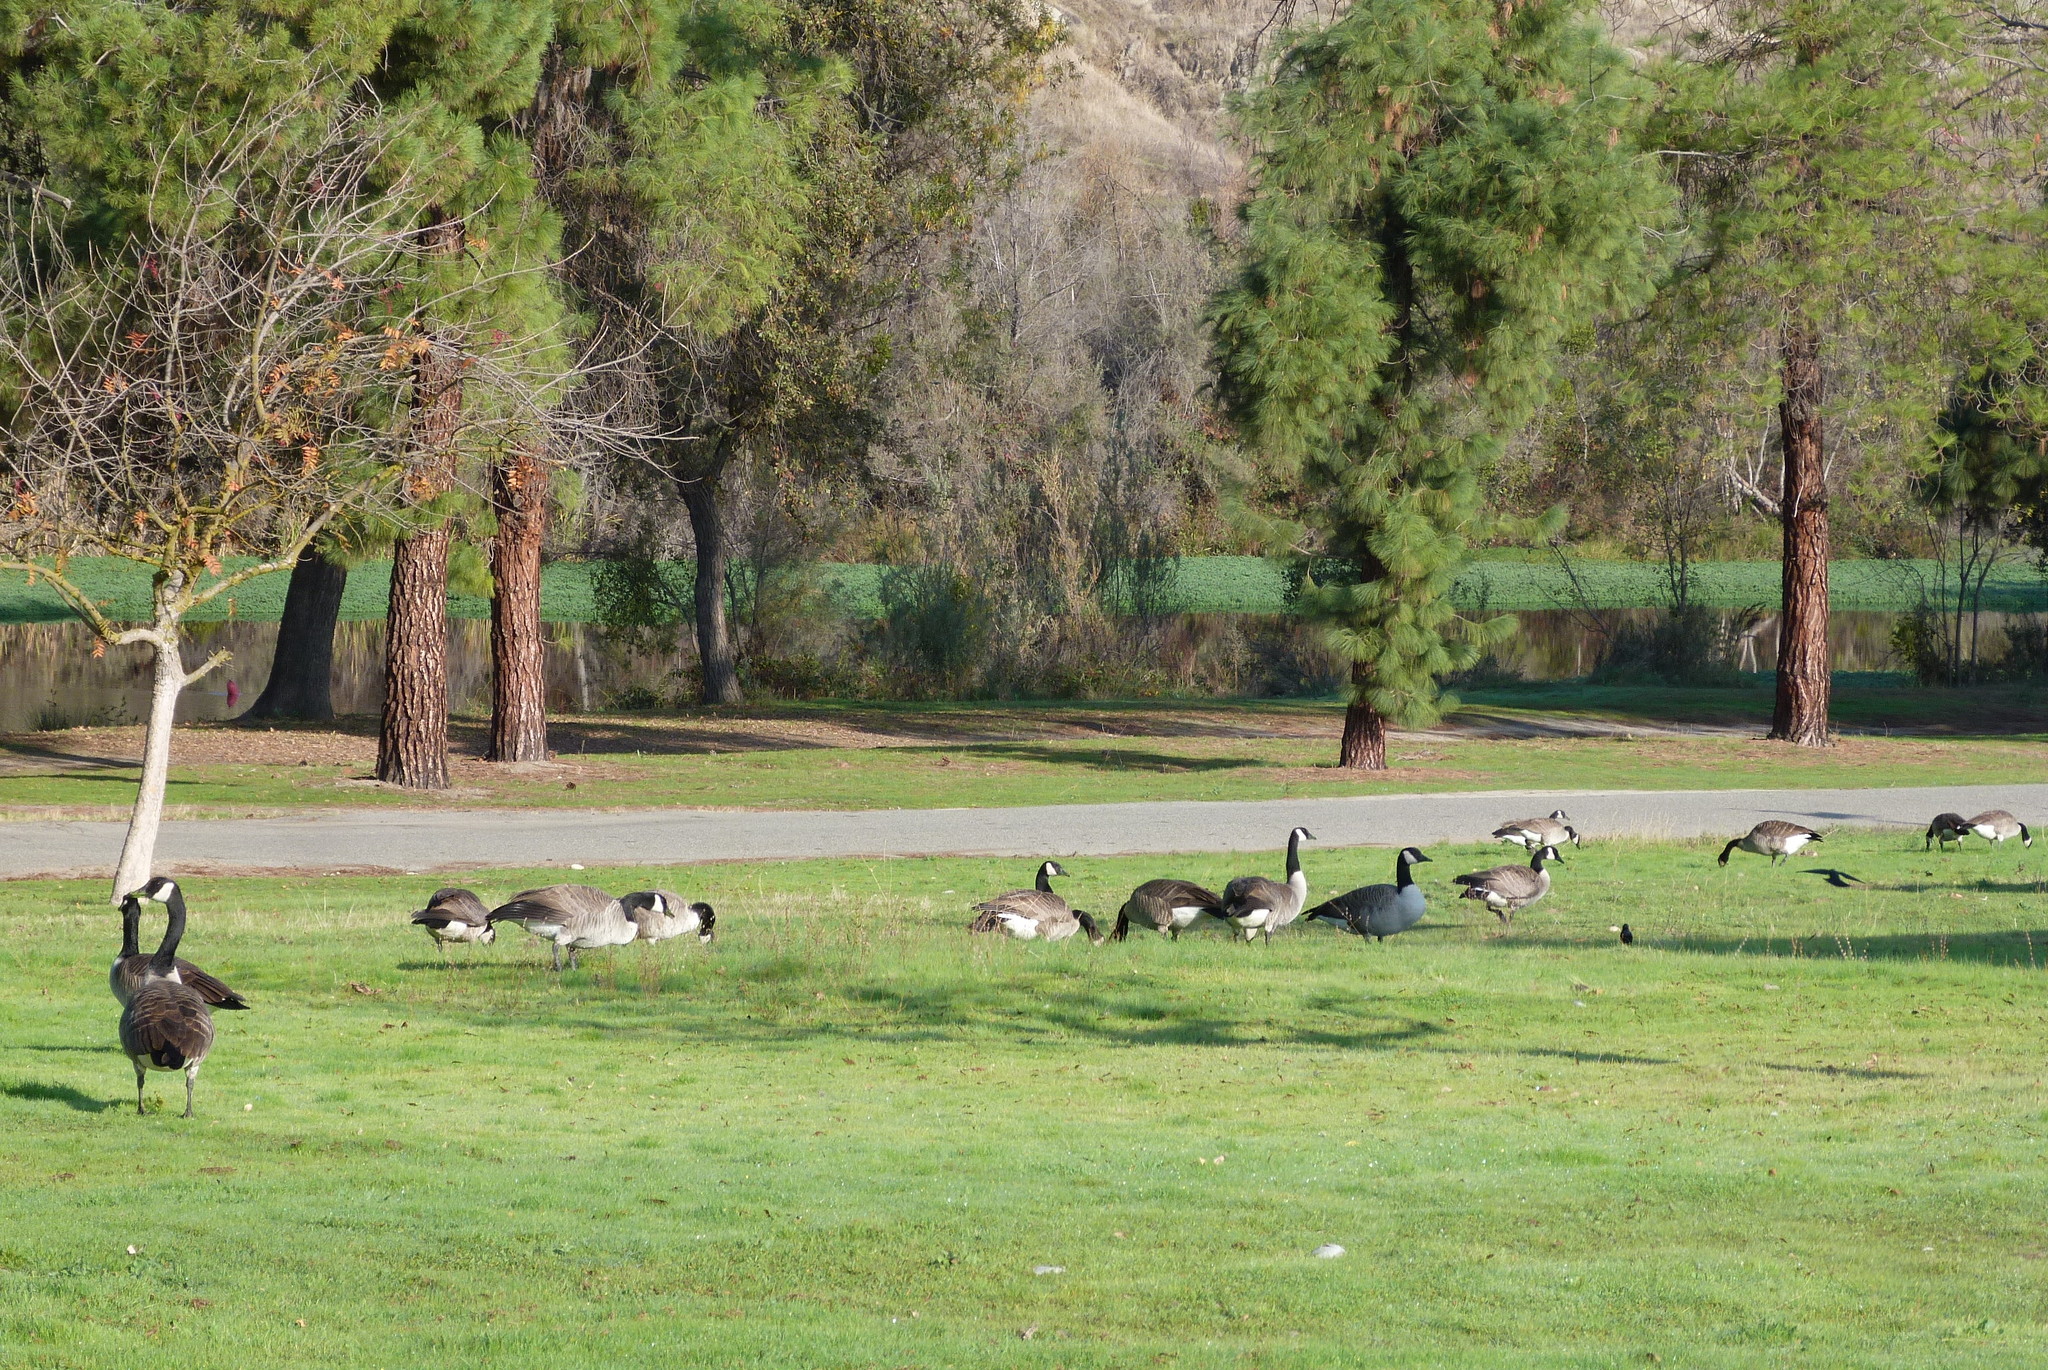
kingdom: Animalia
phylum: Chordata
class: Aves
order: Anseriformes
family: Anatidae
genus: Branta
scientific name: Branta canadensis
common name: Canada goose
